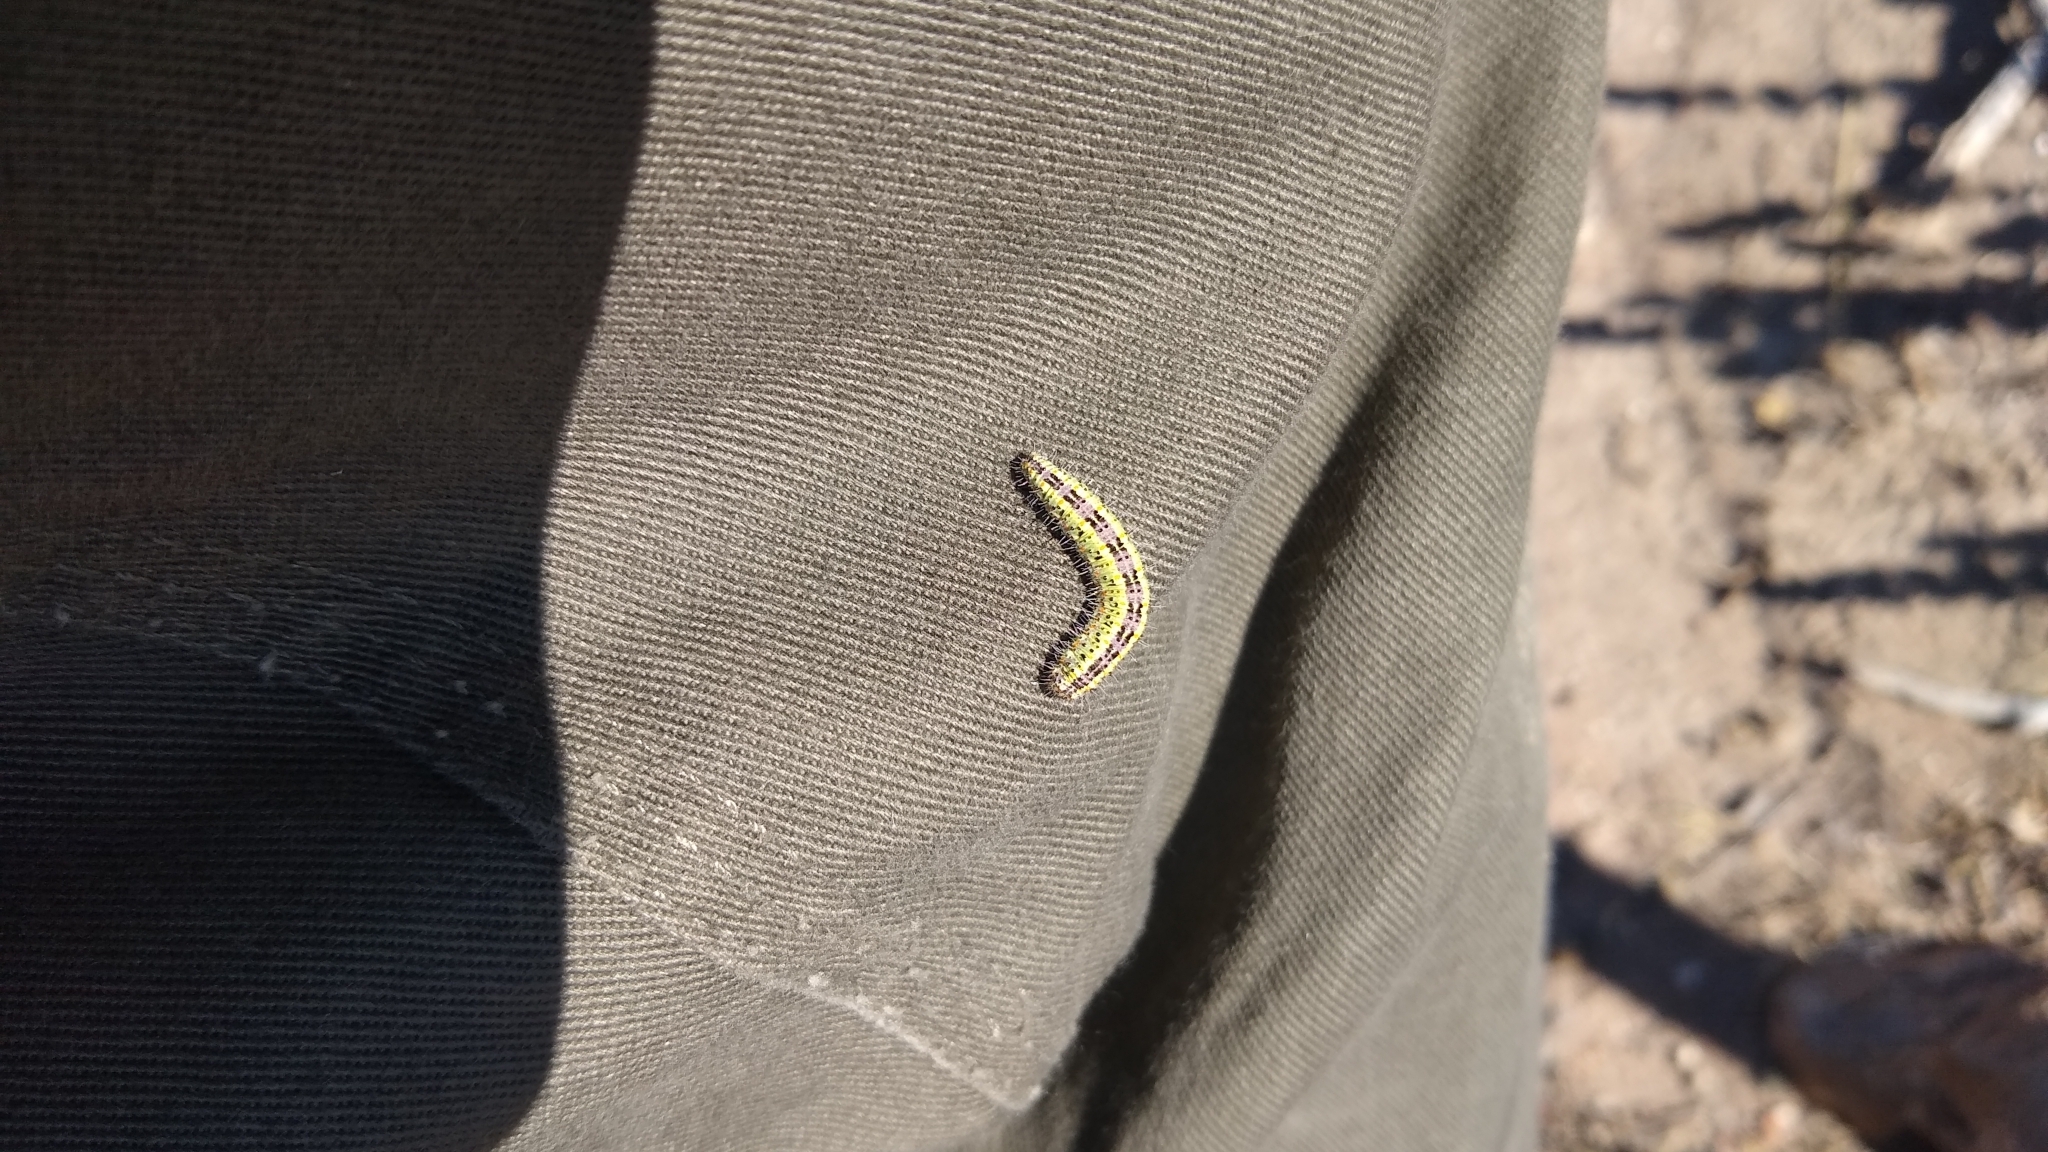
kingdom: Animalia
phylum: Arthropoda
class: Insecta
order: Lepidoptera
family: Pieridae
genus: Tatochila
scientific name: Tatochila mercedis
